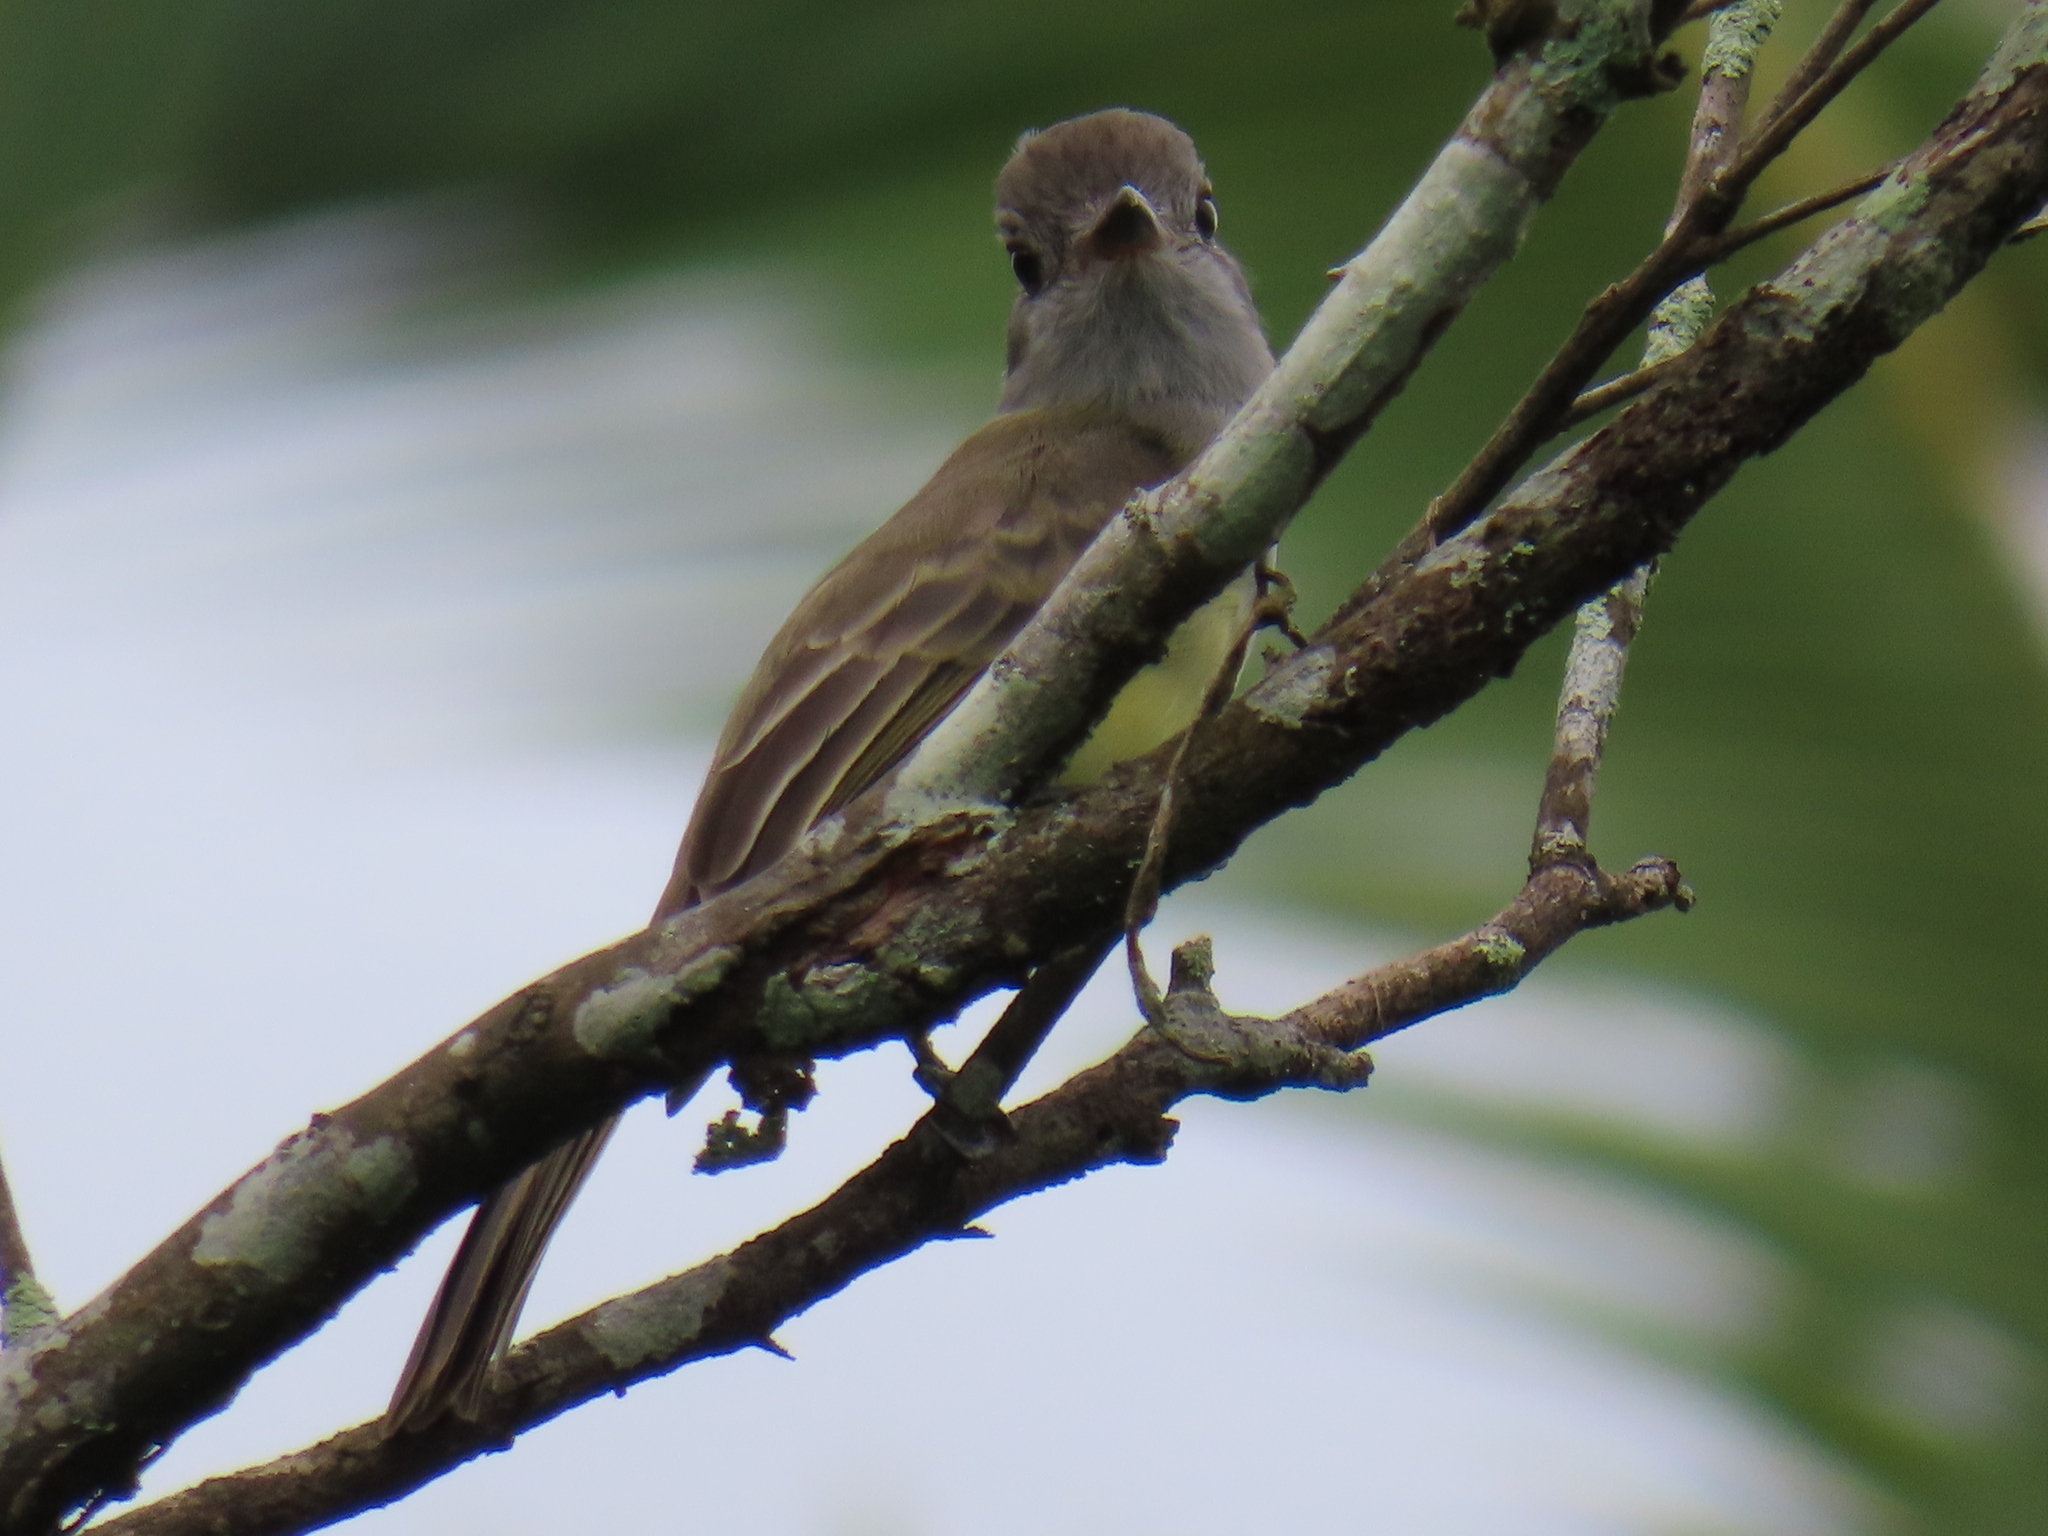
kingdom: Animalia
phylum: Chordata
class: Aves
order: Passeriformes
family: Tyrannidae
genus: Myiarchus
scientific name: Myiarchus panamensis
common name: Panama flycatcher
